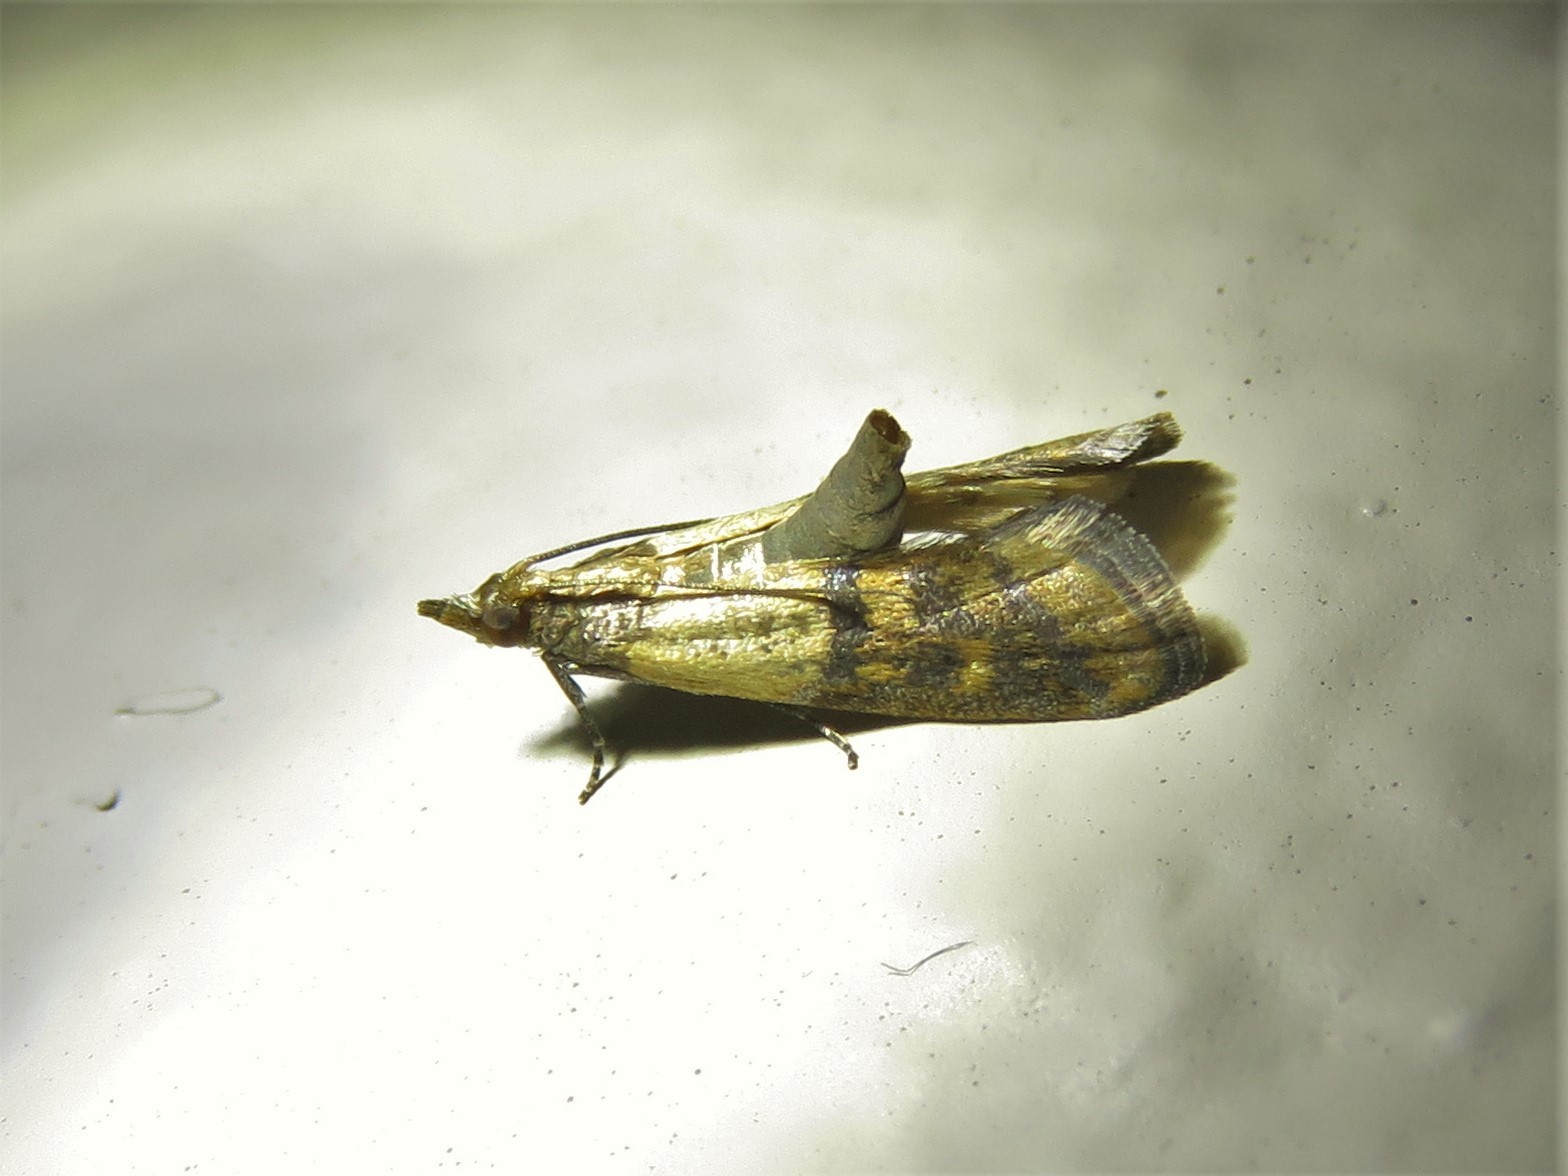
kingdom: Animalia
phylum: Arthropoda
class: Insecta
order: Lepidoptera
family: Pyralidae
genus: Plodia
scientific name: Plodia interpunctella
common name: Indian meal moth
